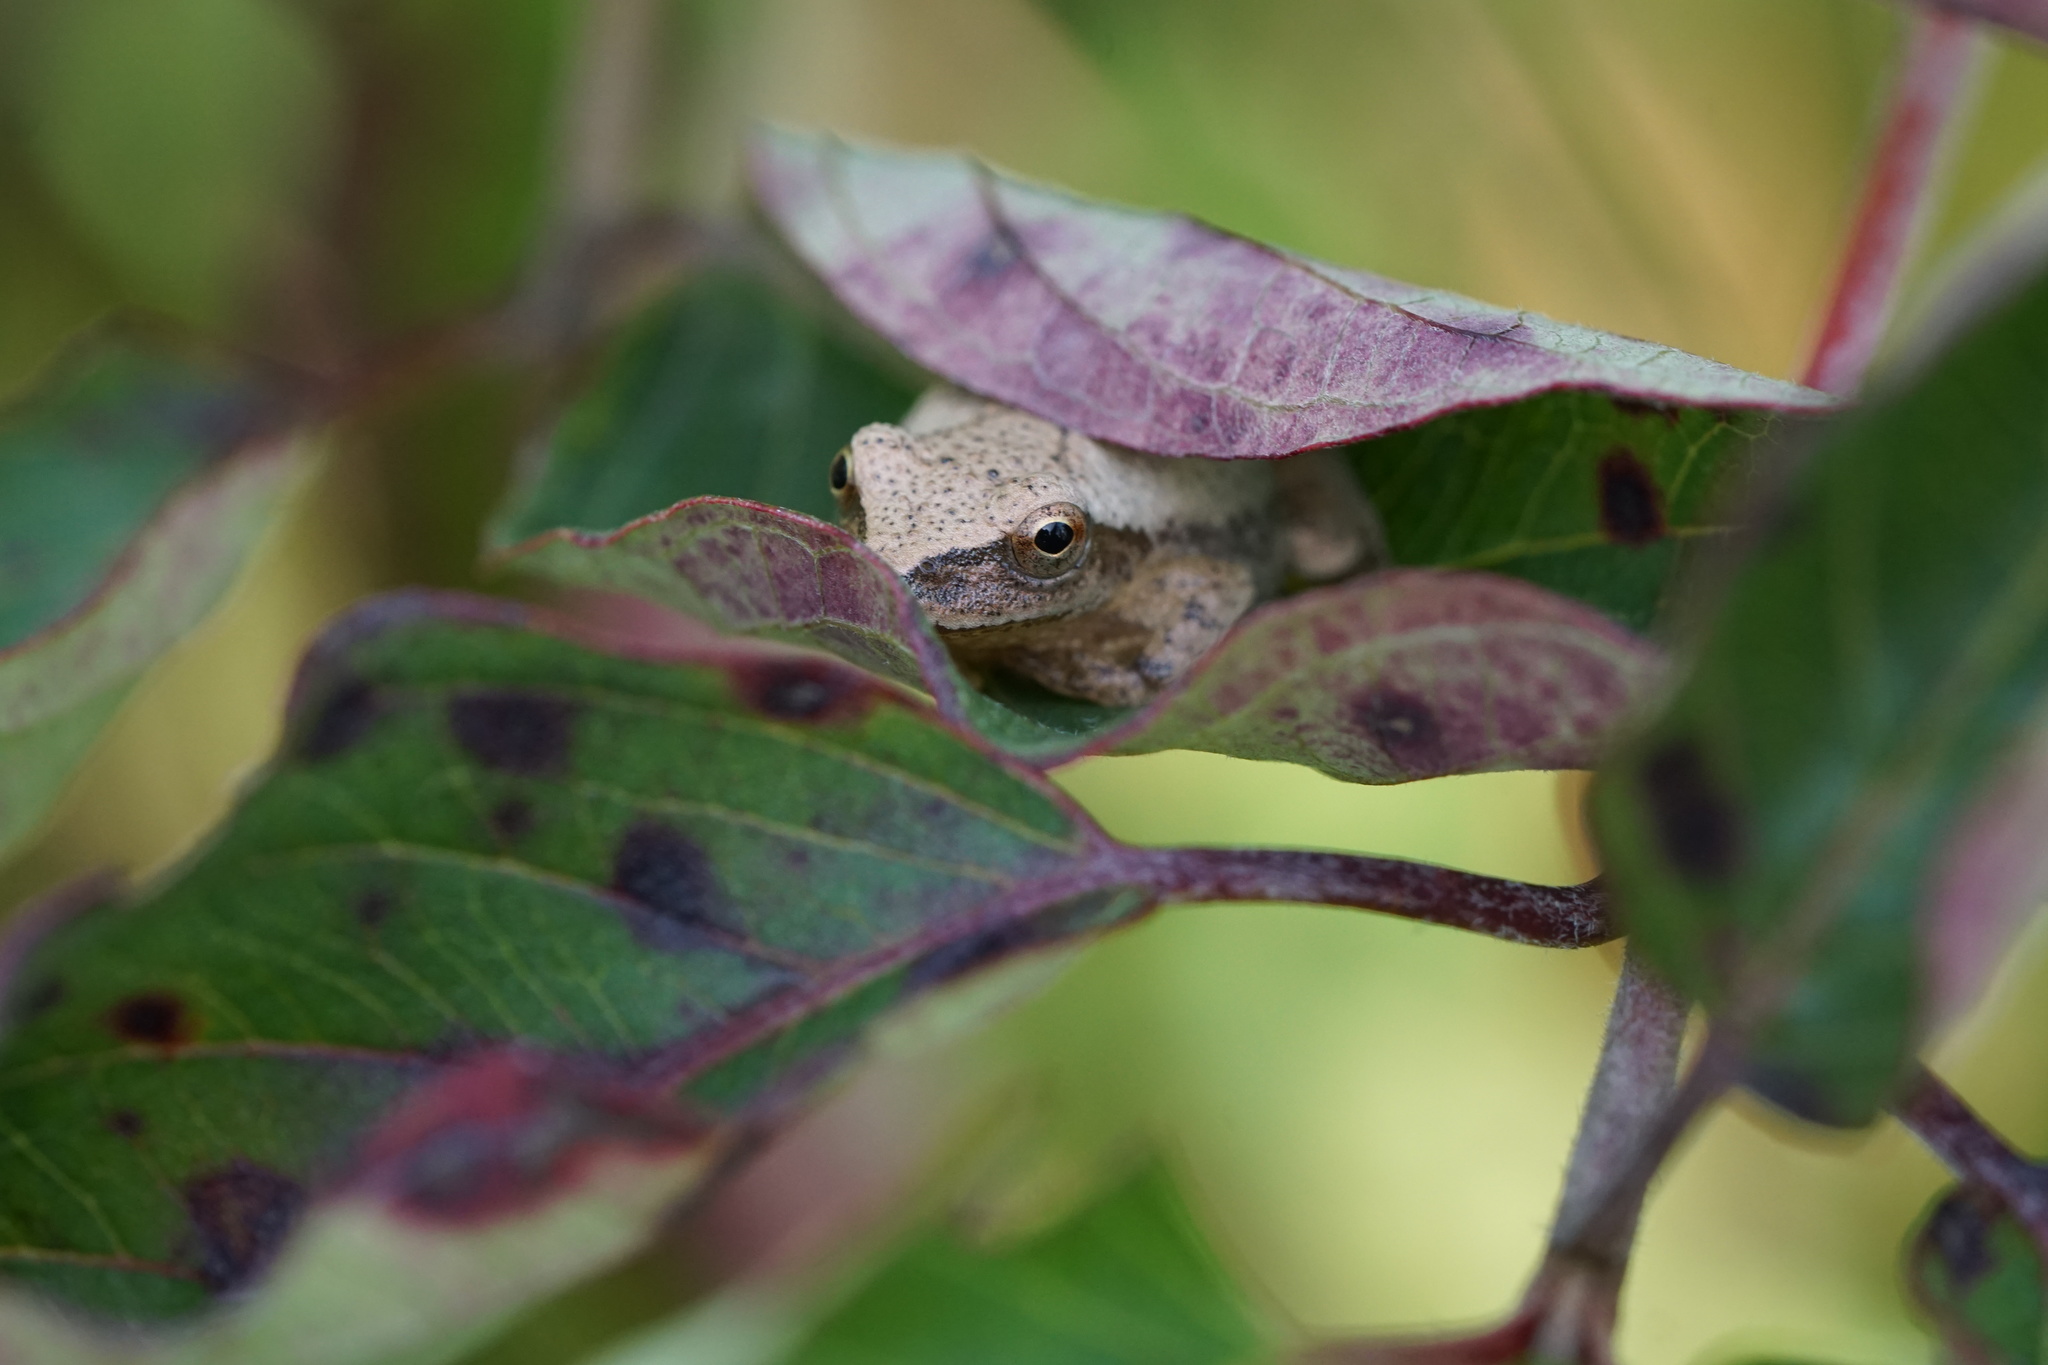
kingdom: Animalia
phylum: Chordata
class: Amphibia
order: Anura
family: Hylidae
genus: Pseudacris
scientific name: Pseudacris crucifer
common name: Spring peeper
